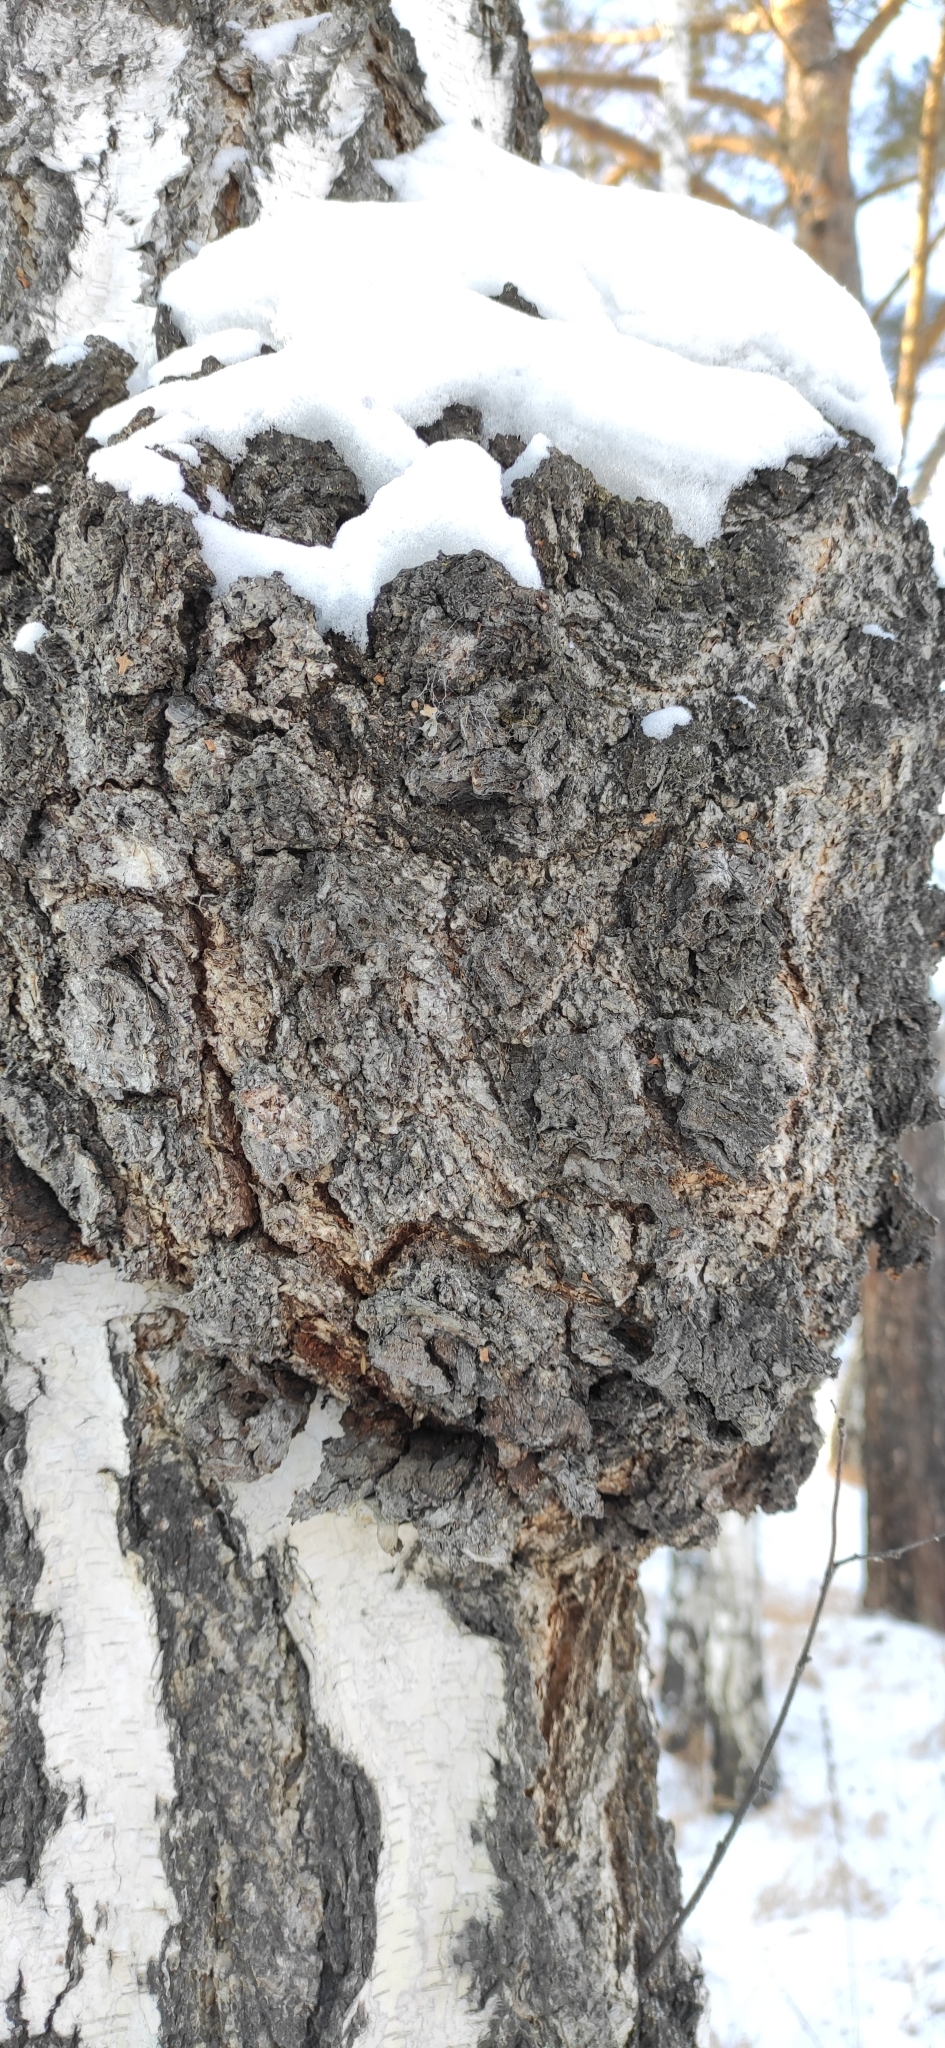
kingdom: Bacteria
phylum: Proteobacteria
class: Alphaproteobacteria
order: Rhizobiales
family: Rhizobiaceae
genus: Rhizobium
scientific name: Rhizobium Agrobacterium radiobacter
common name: Bacterial crown gall
